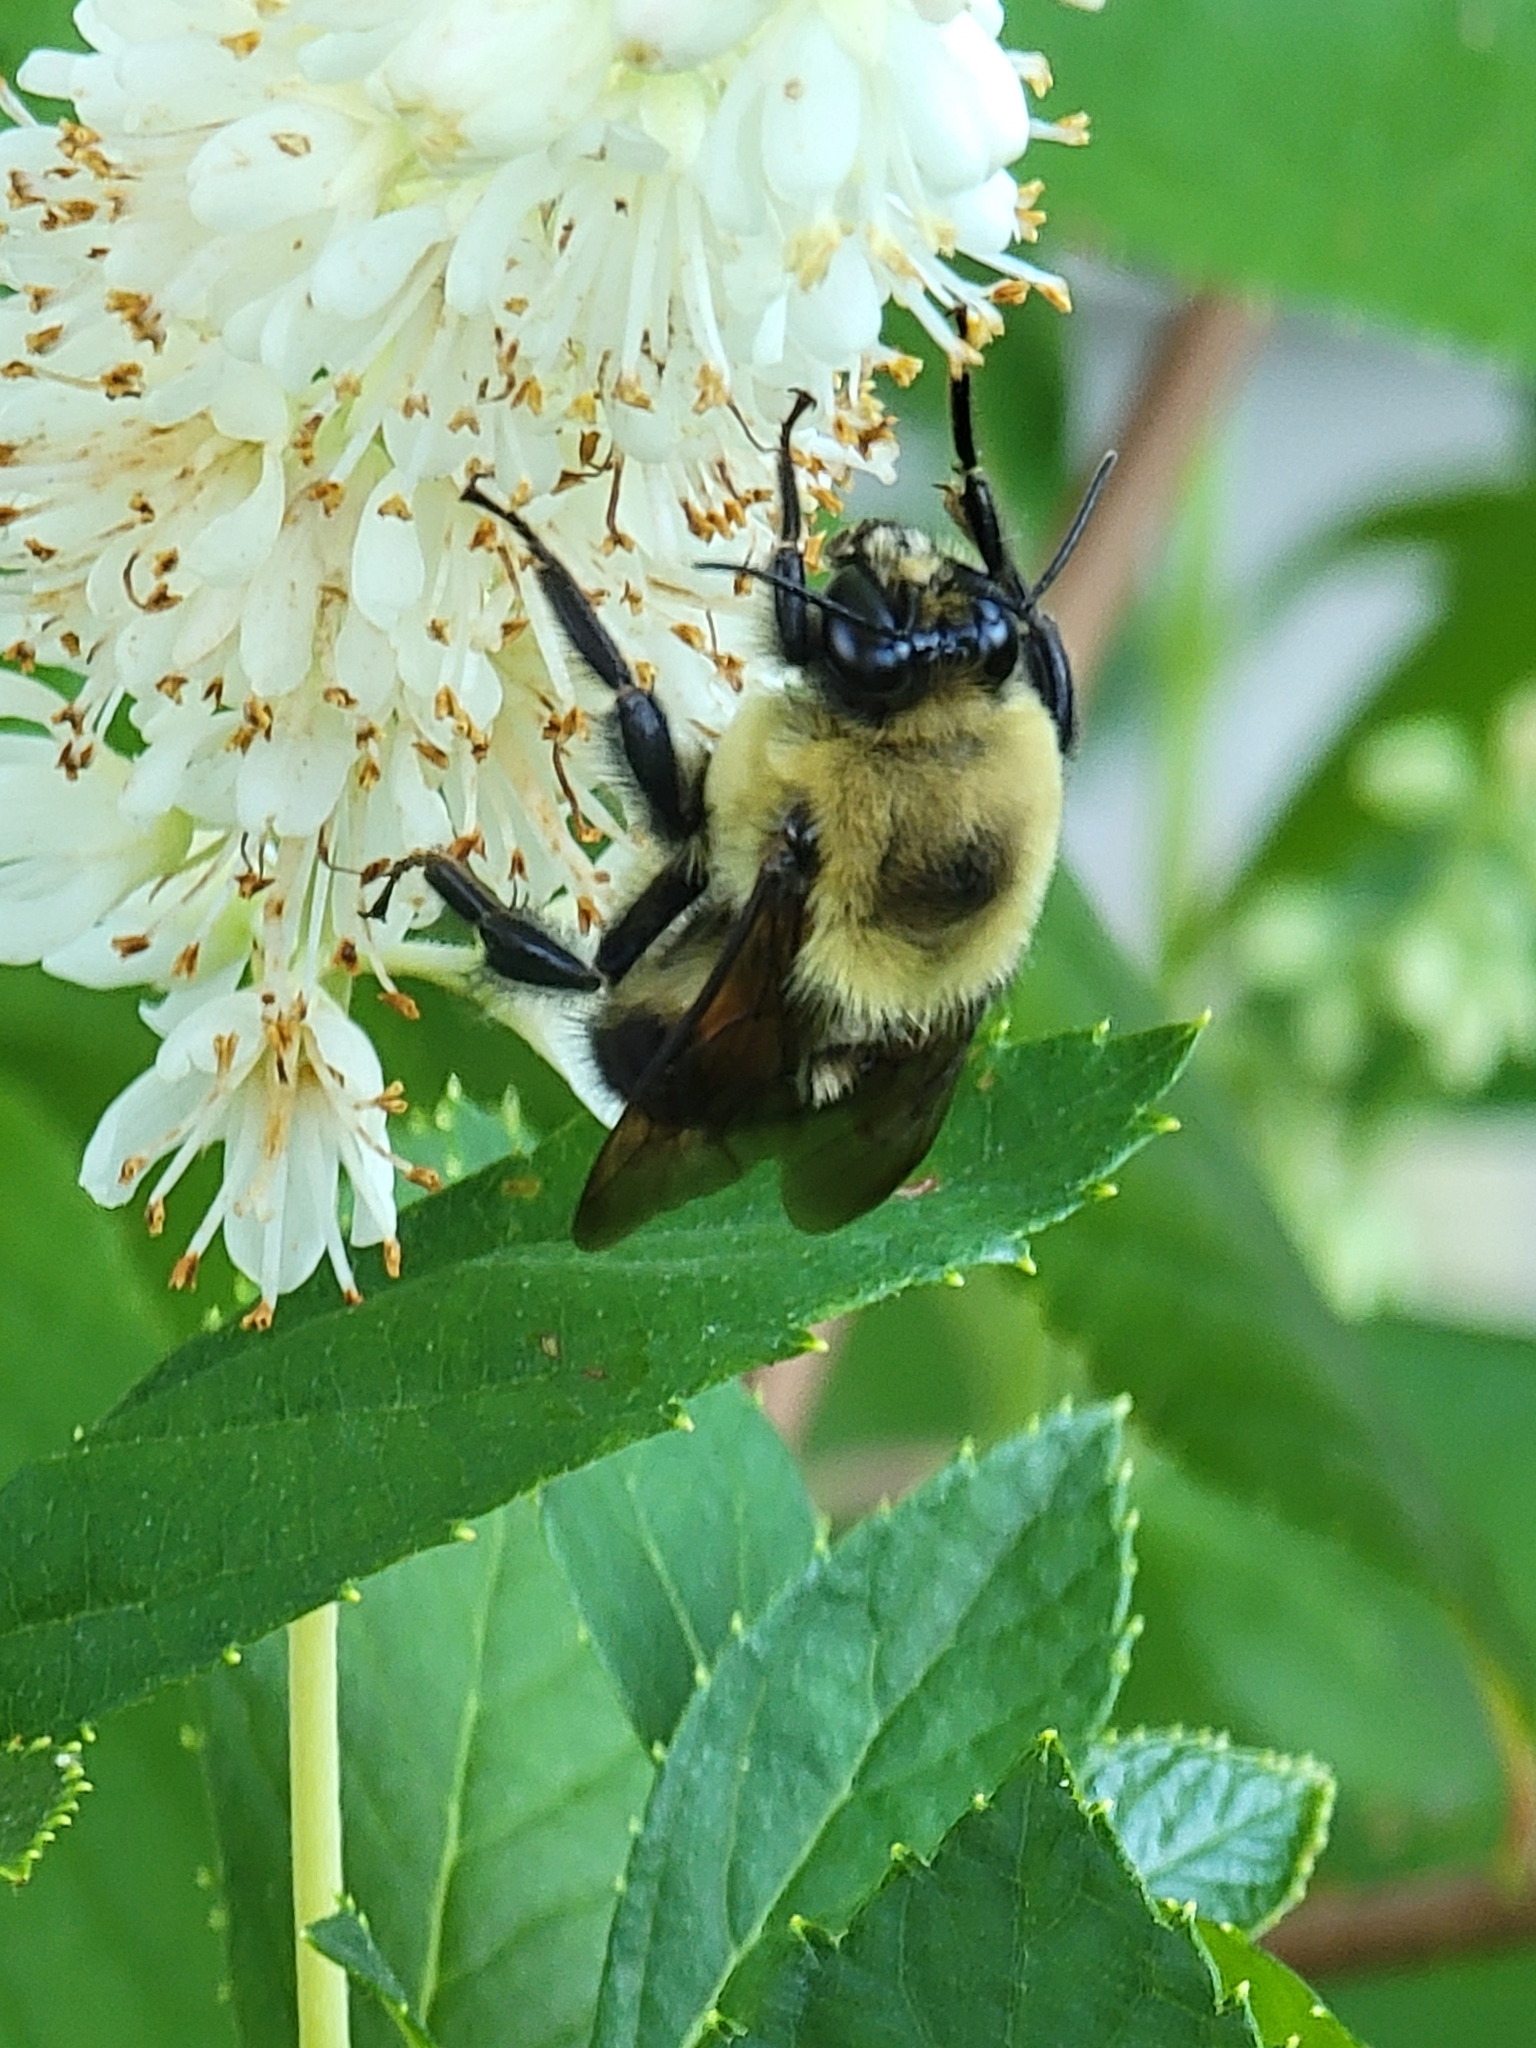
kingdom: Animalia
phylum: Arthropoda
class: Insecta
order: Hymenoptera
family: Apidae
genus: Bombus
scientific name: Bombus griseocollis
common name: Brown-belted bumble bee
